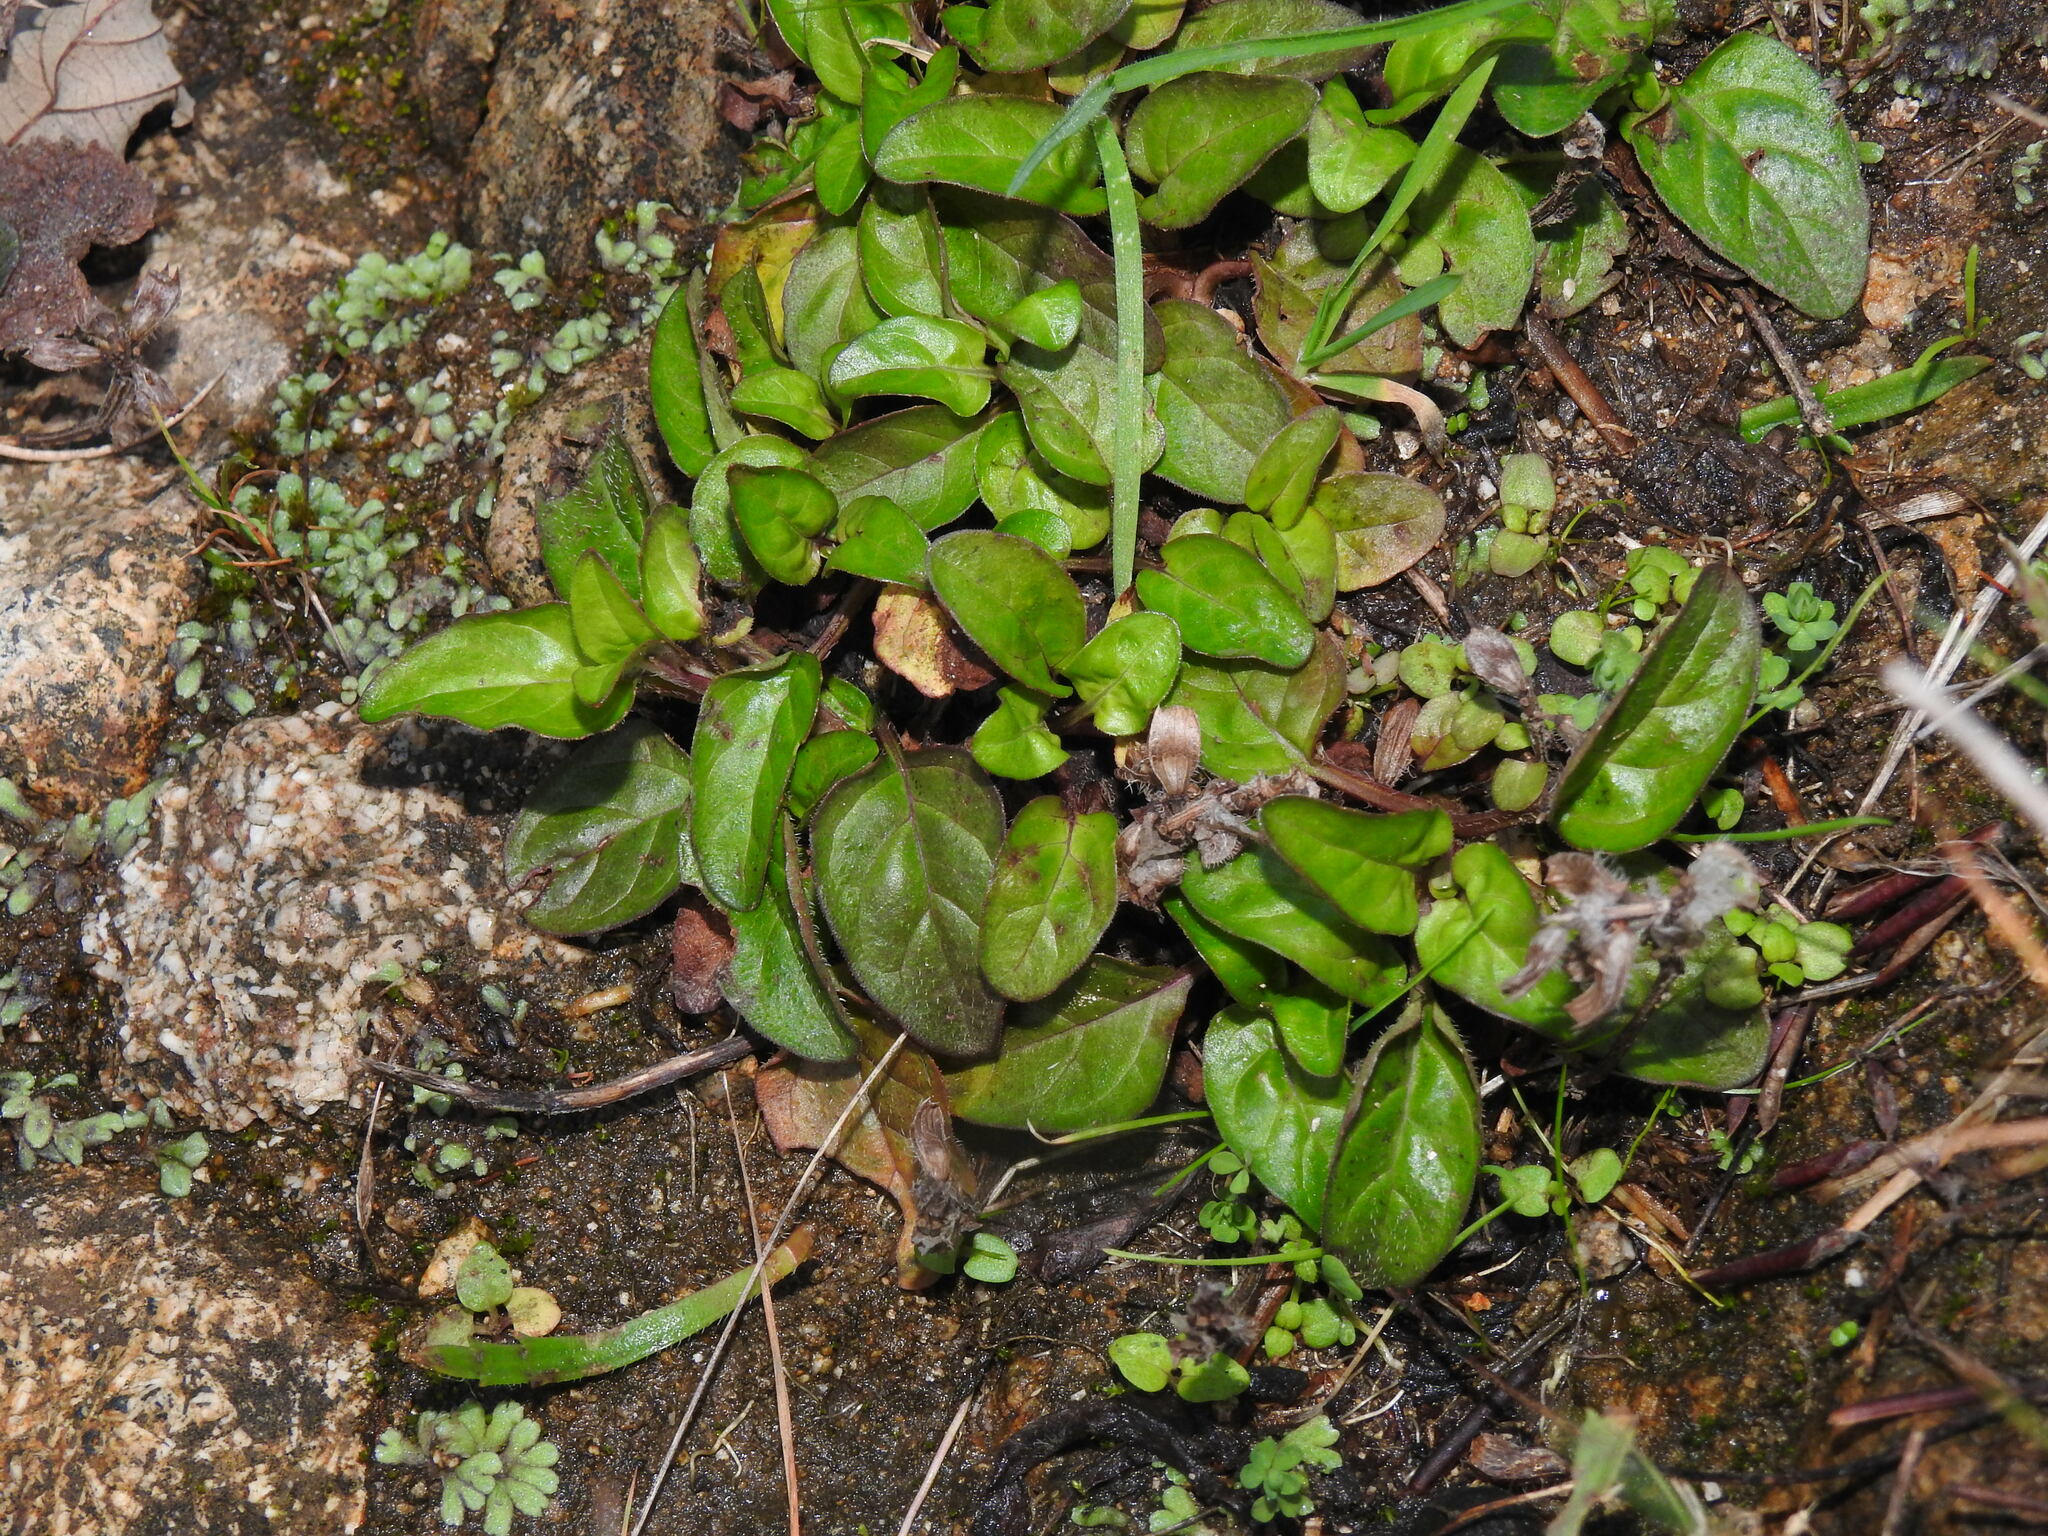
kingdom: Plantae
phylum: Tracheophyta
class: Magnoliopsida
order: Lamiales
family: Lamiaceae
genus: Prunella
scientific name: Prunella vulgaris
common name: Heal-all
